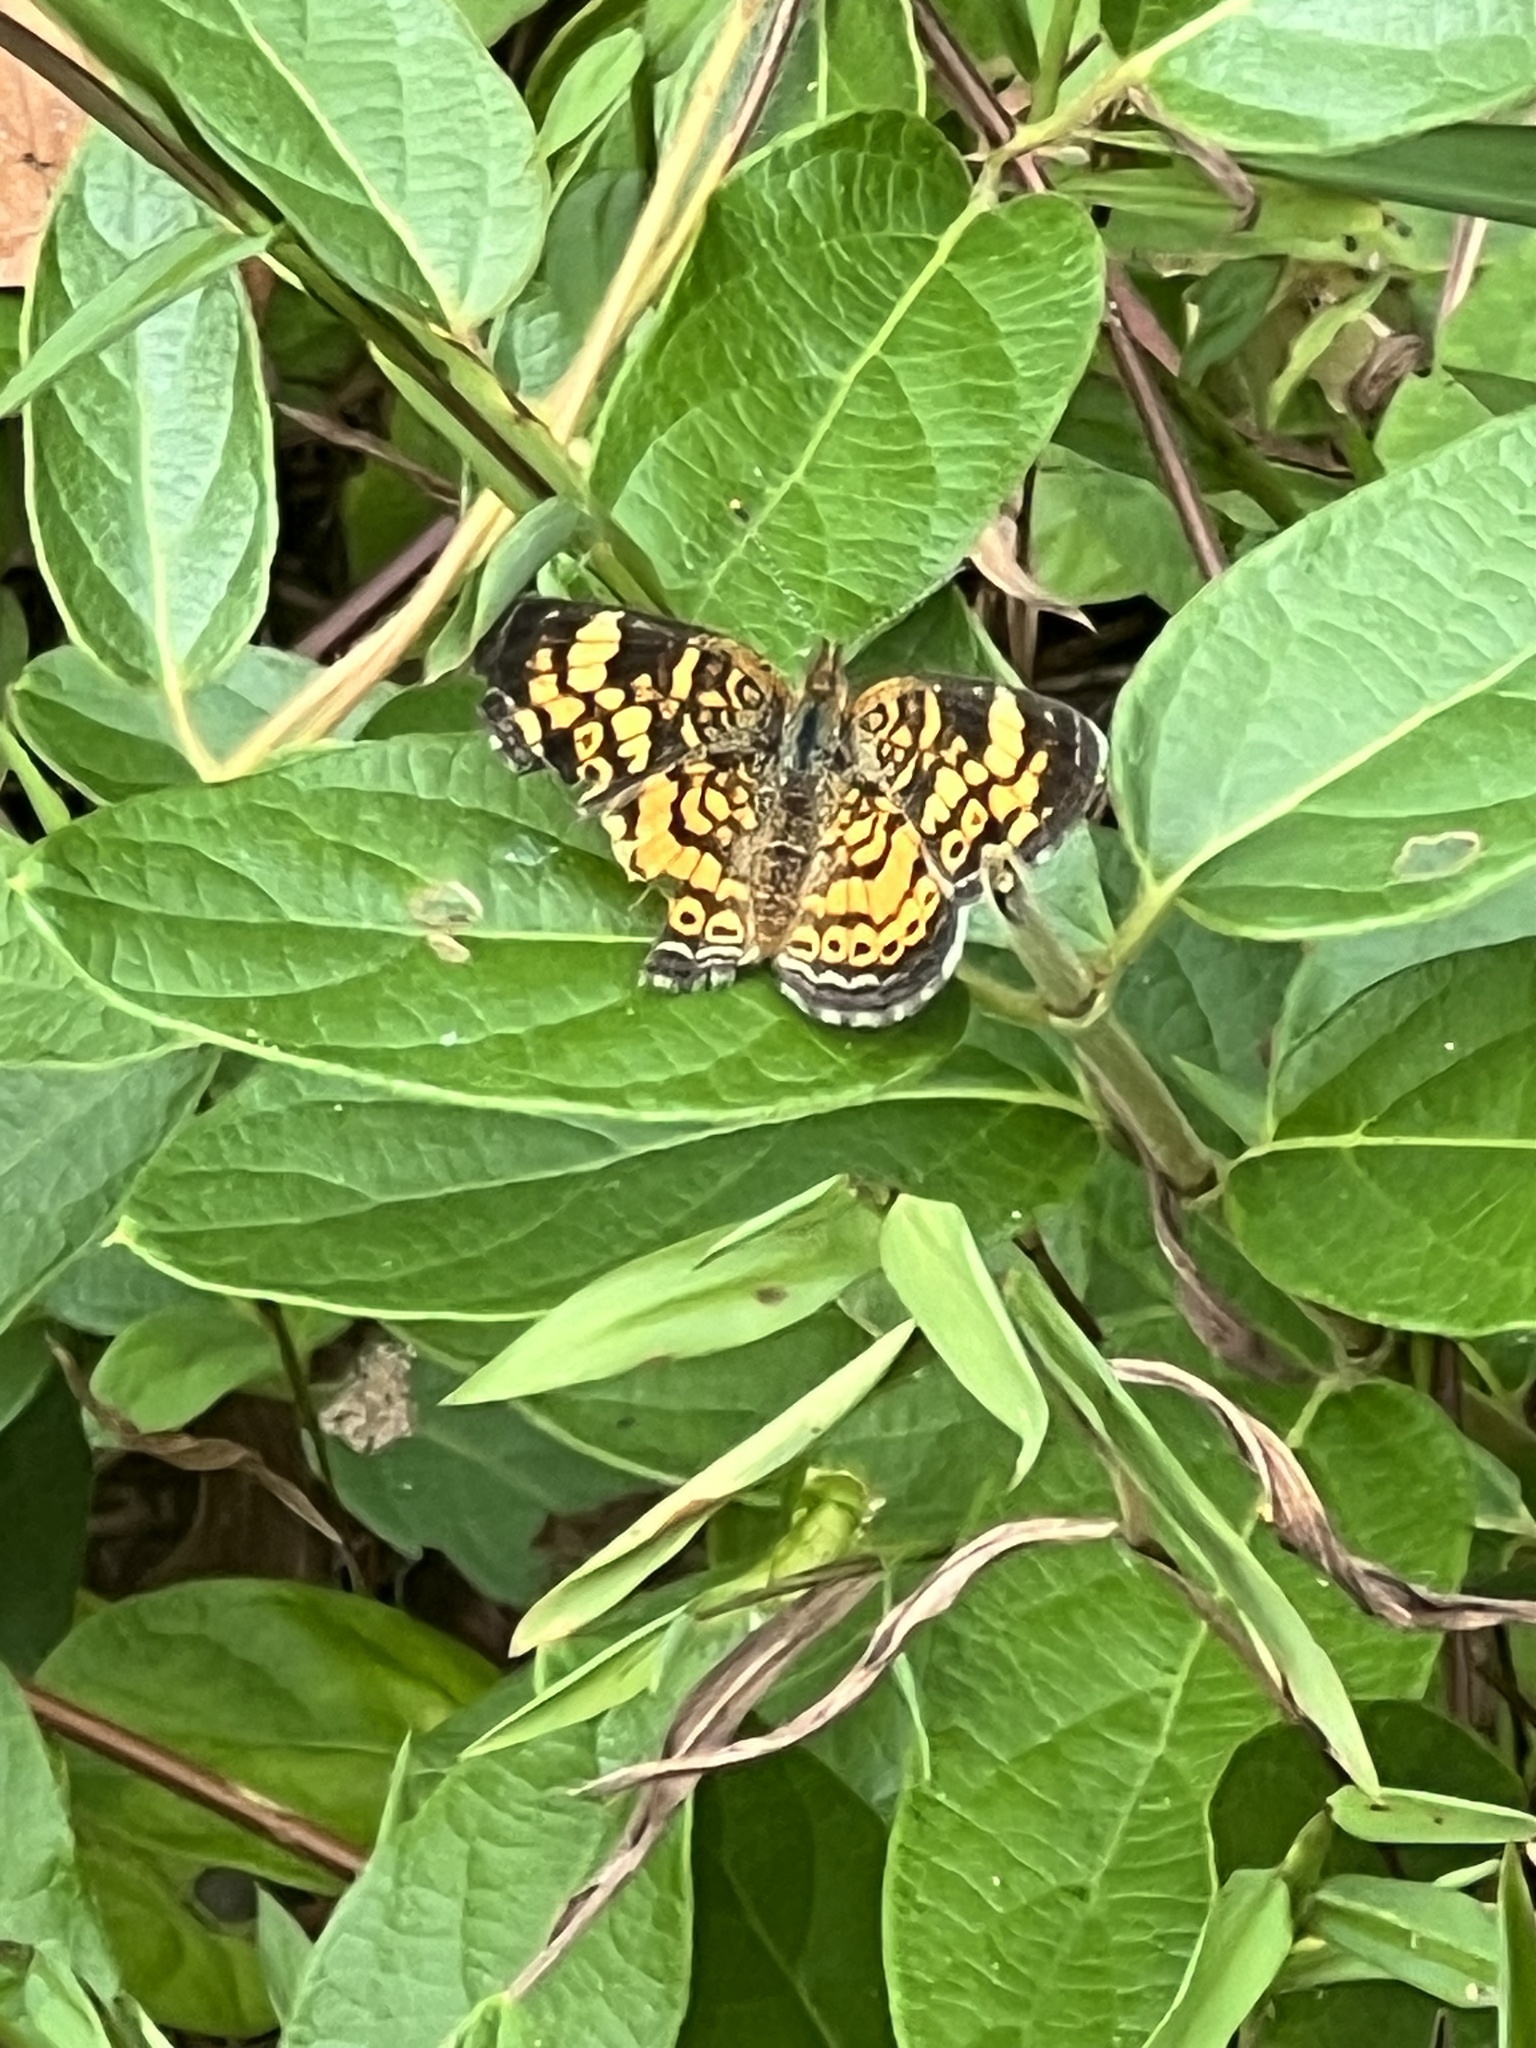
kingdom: Animalia
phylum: Arthropoda
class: Insecta
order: Lepidoptera
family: Nymphalidae
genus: Phyciodes
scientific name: Phyciodes tharos
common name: Pearl crescent
